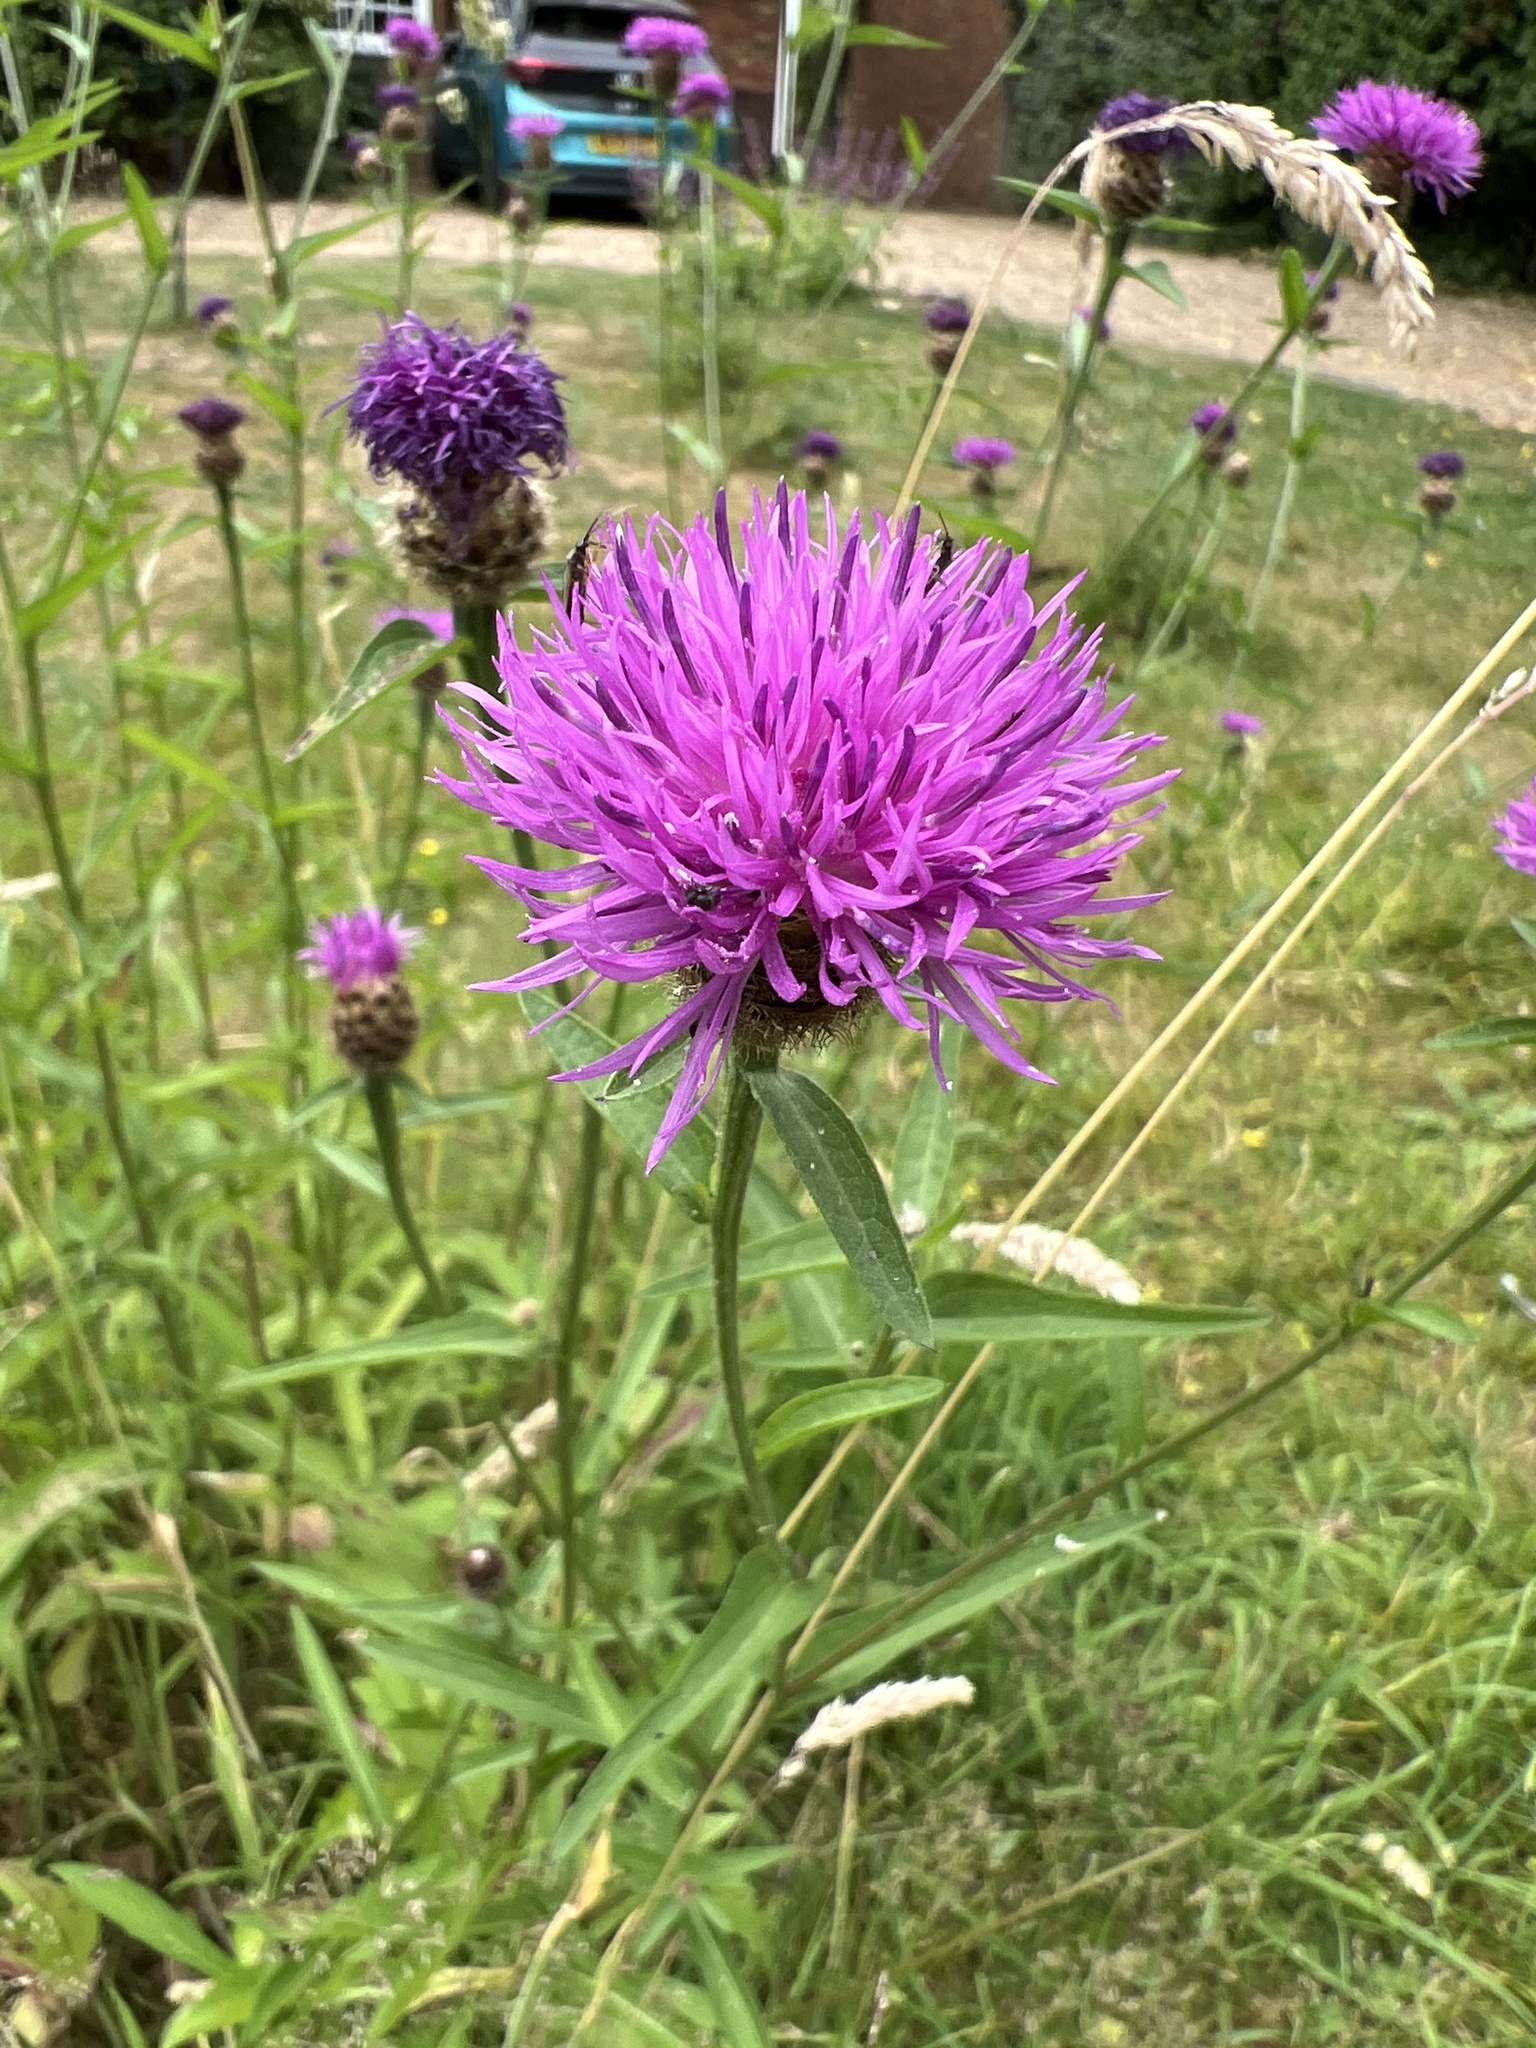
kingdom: Plantae
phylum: Tracheophyta
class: Magnoliopsida
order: Asterales
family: Asteraceae
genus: Centaurea
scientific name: Centaurea nigra
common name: Lesser knapweed
